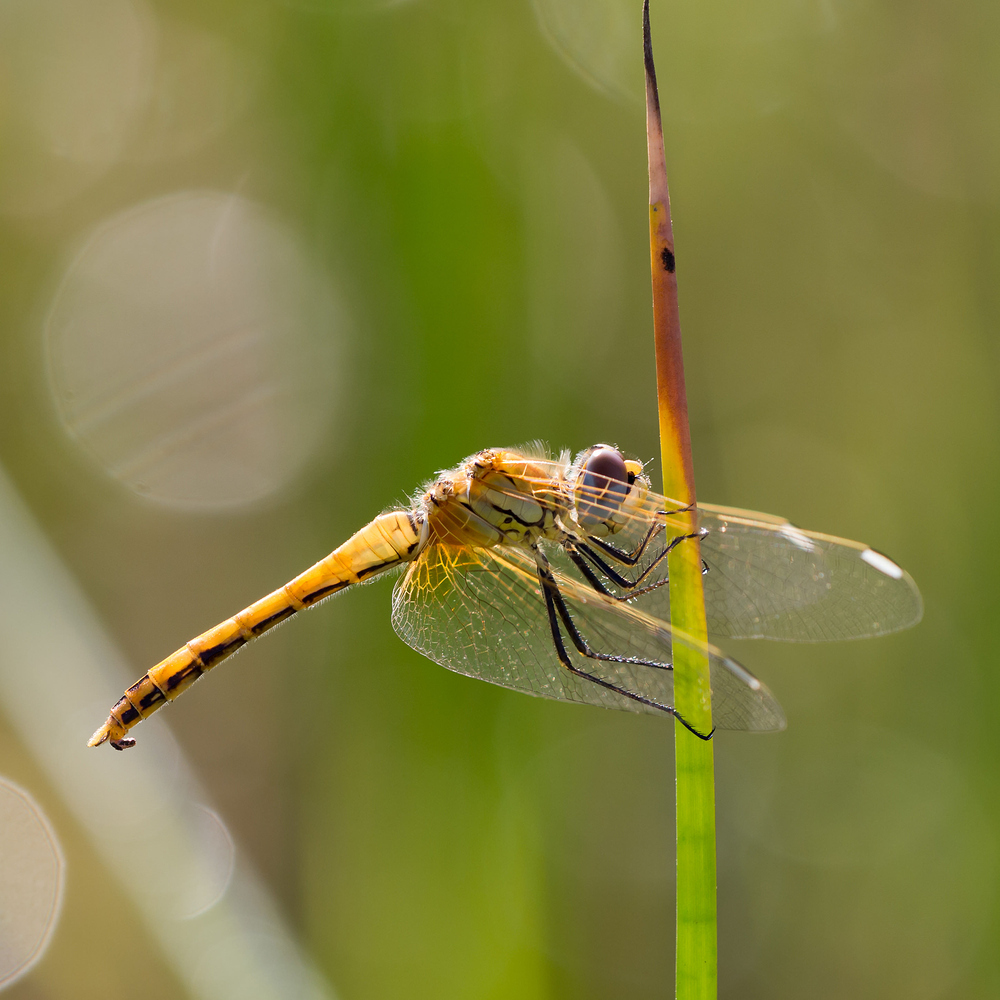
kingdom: Animalia
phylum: Arthropoda
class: Insecta
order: Odonata
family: Libellulidae
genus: Sympetrum
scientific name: Sympetrum fonscolombii
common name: Red-veined darter
